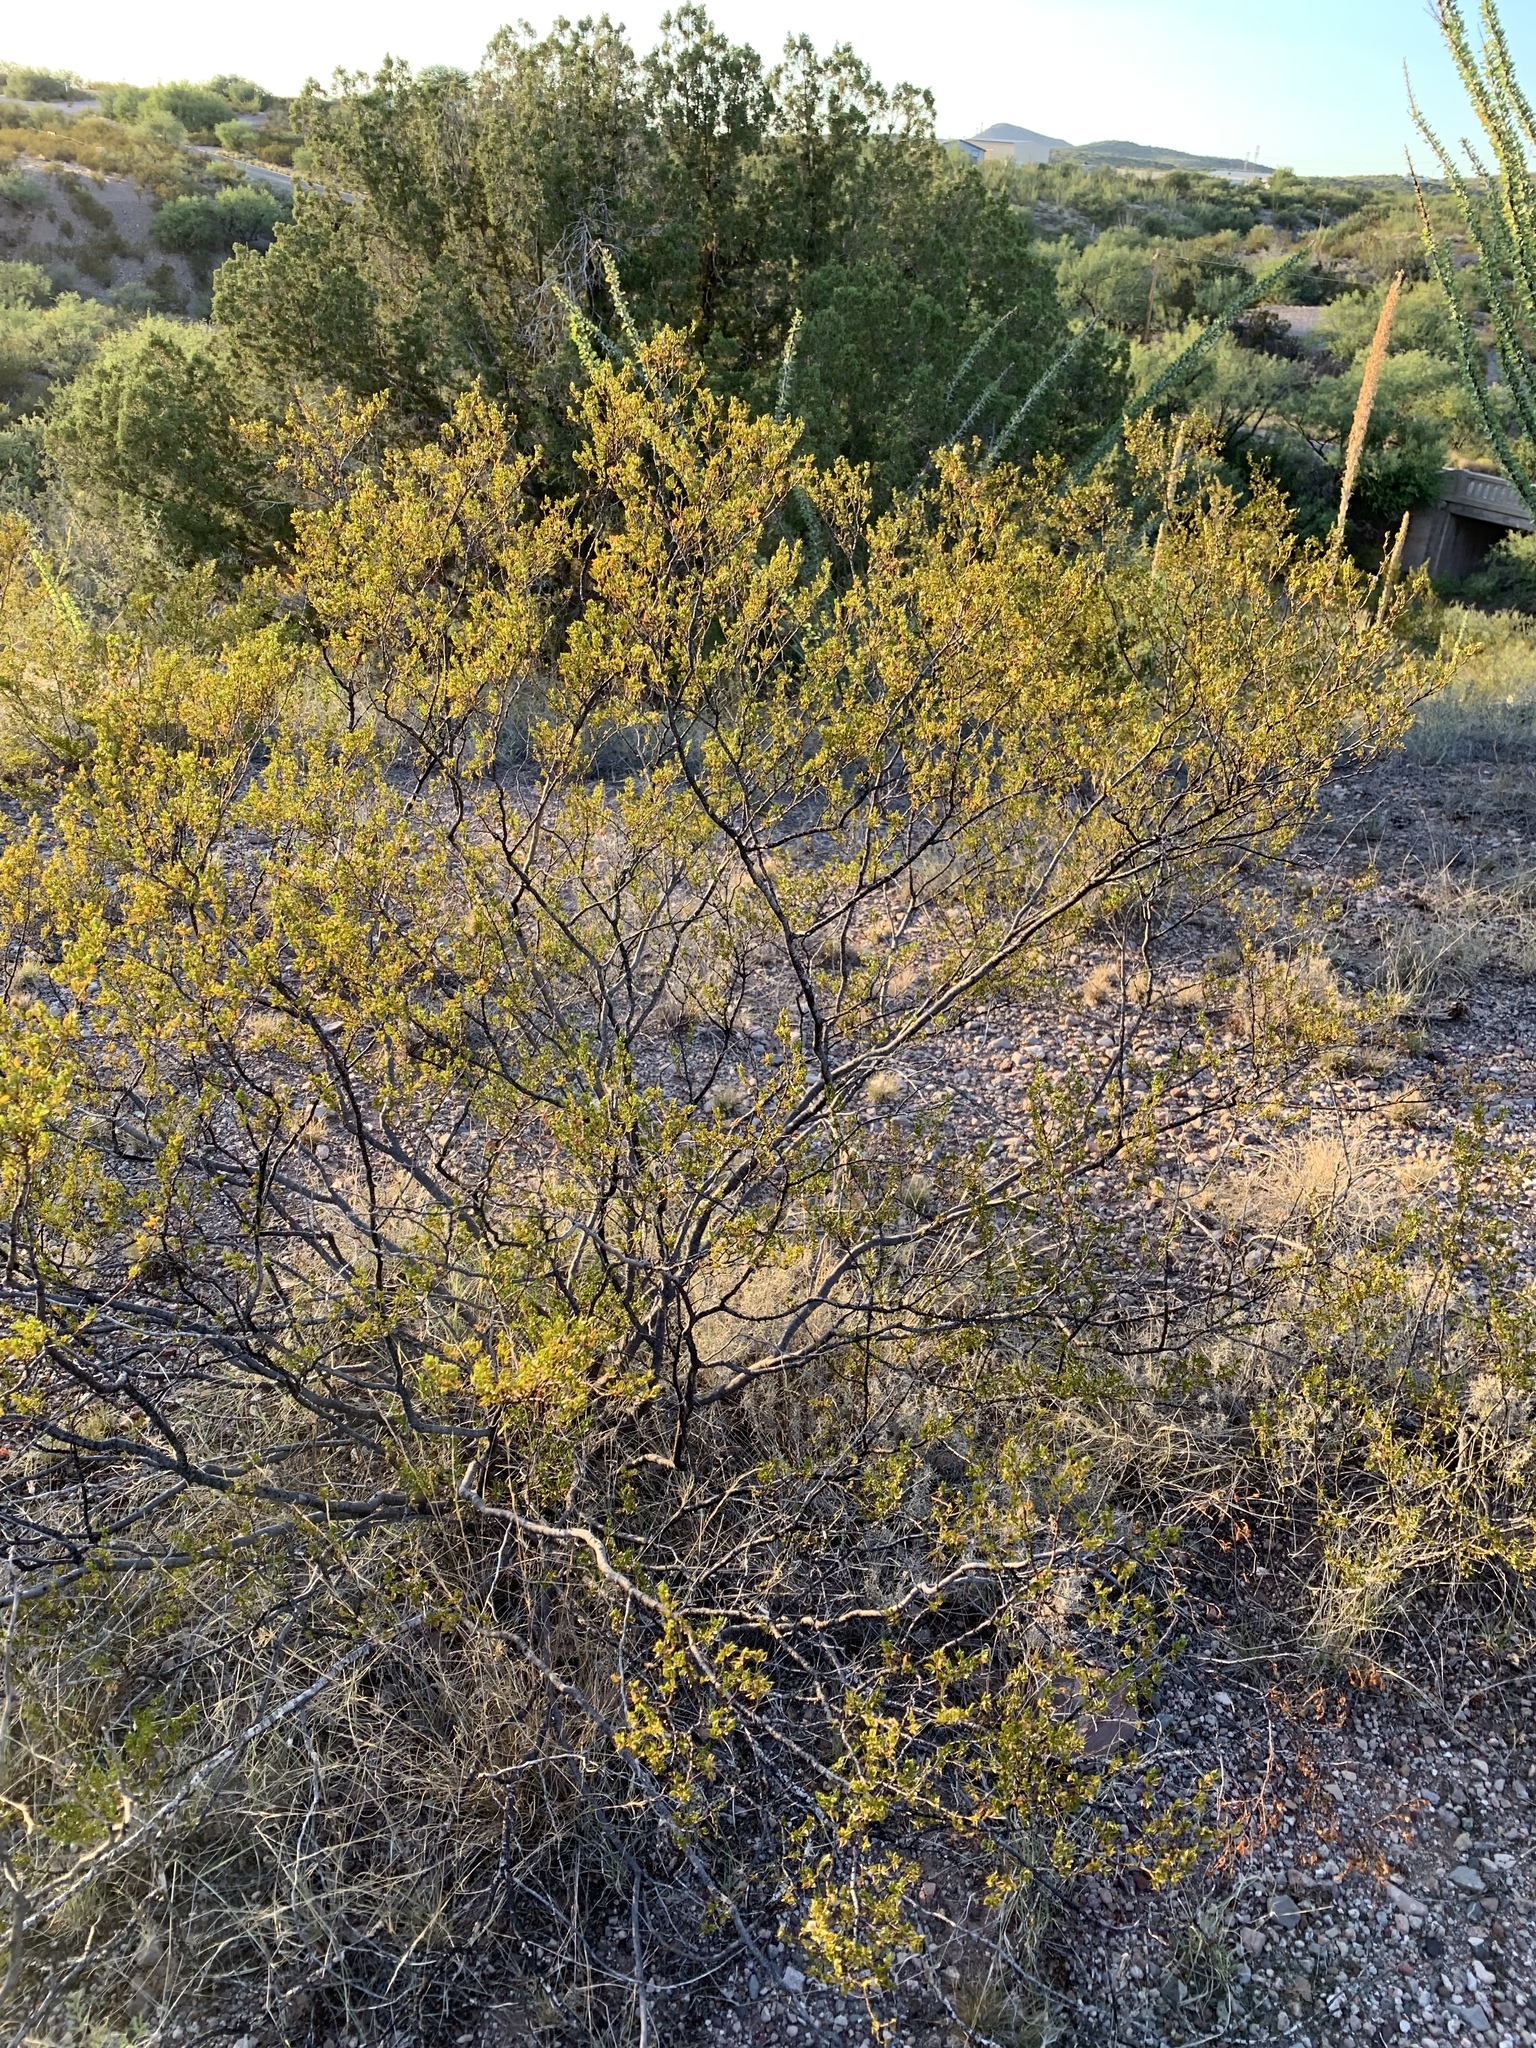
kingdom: Plantae
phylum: Tracheophyta
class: Magnoliopsida
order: Zygophyllales
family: Zygophyllaceae
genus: Larrea
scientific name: Larrea tridentata
